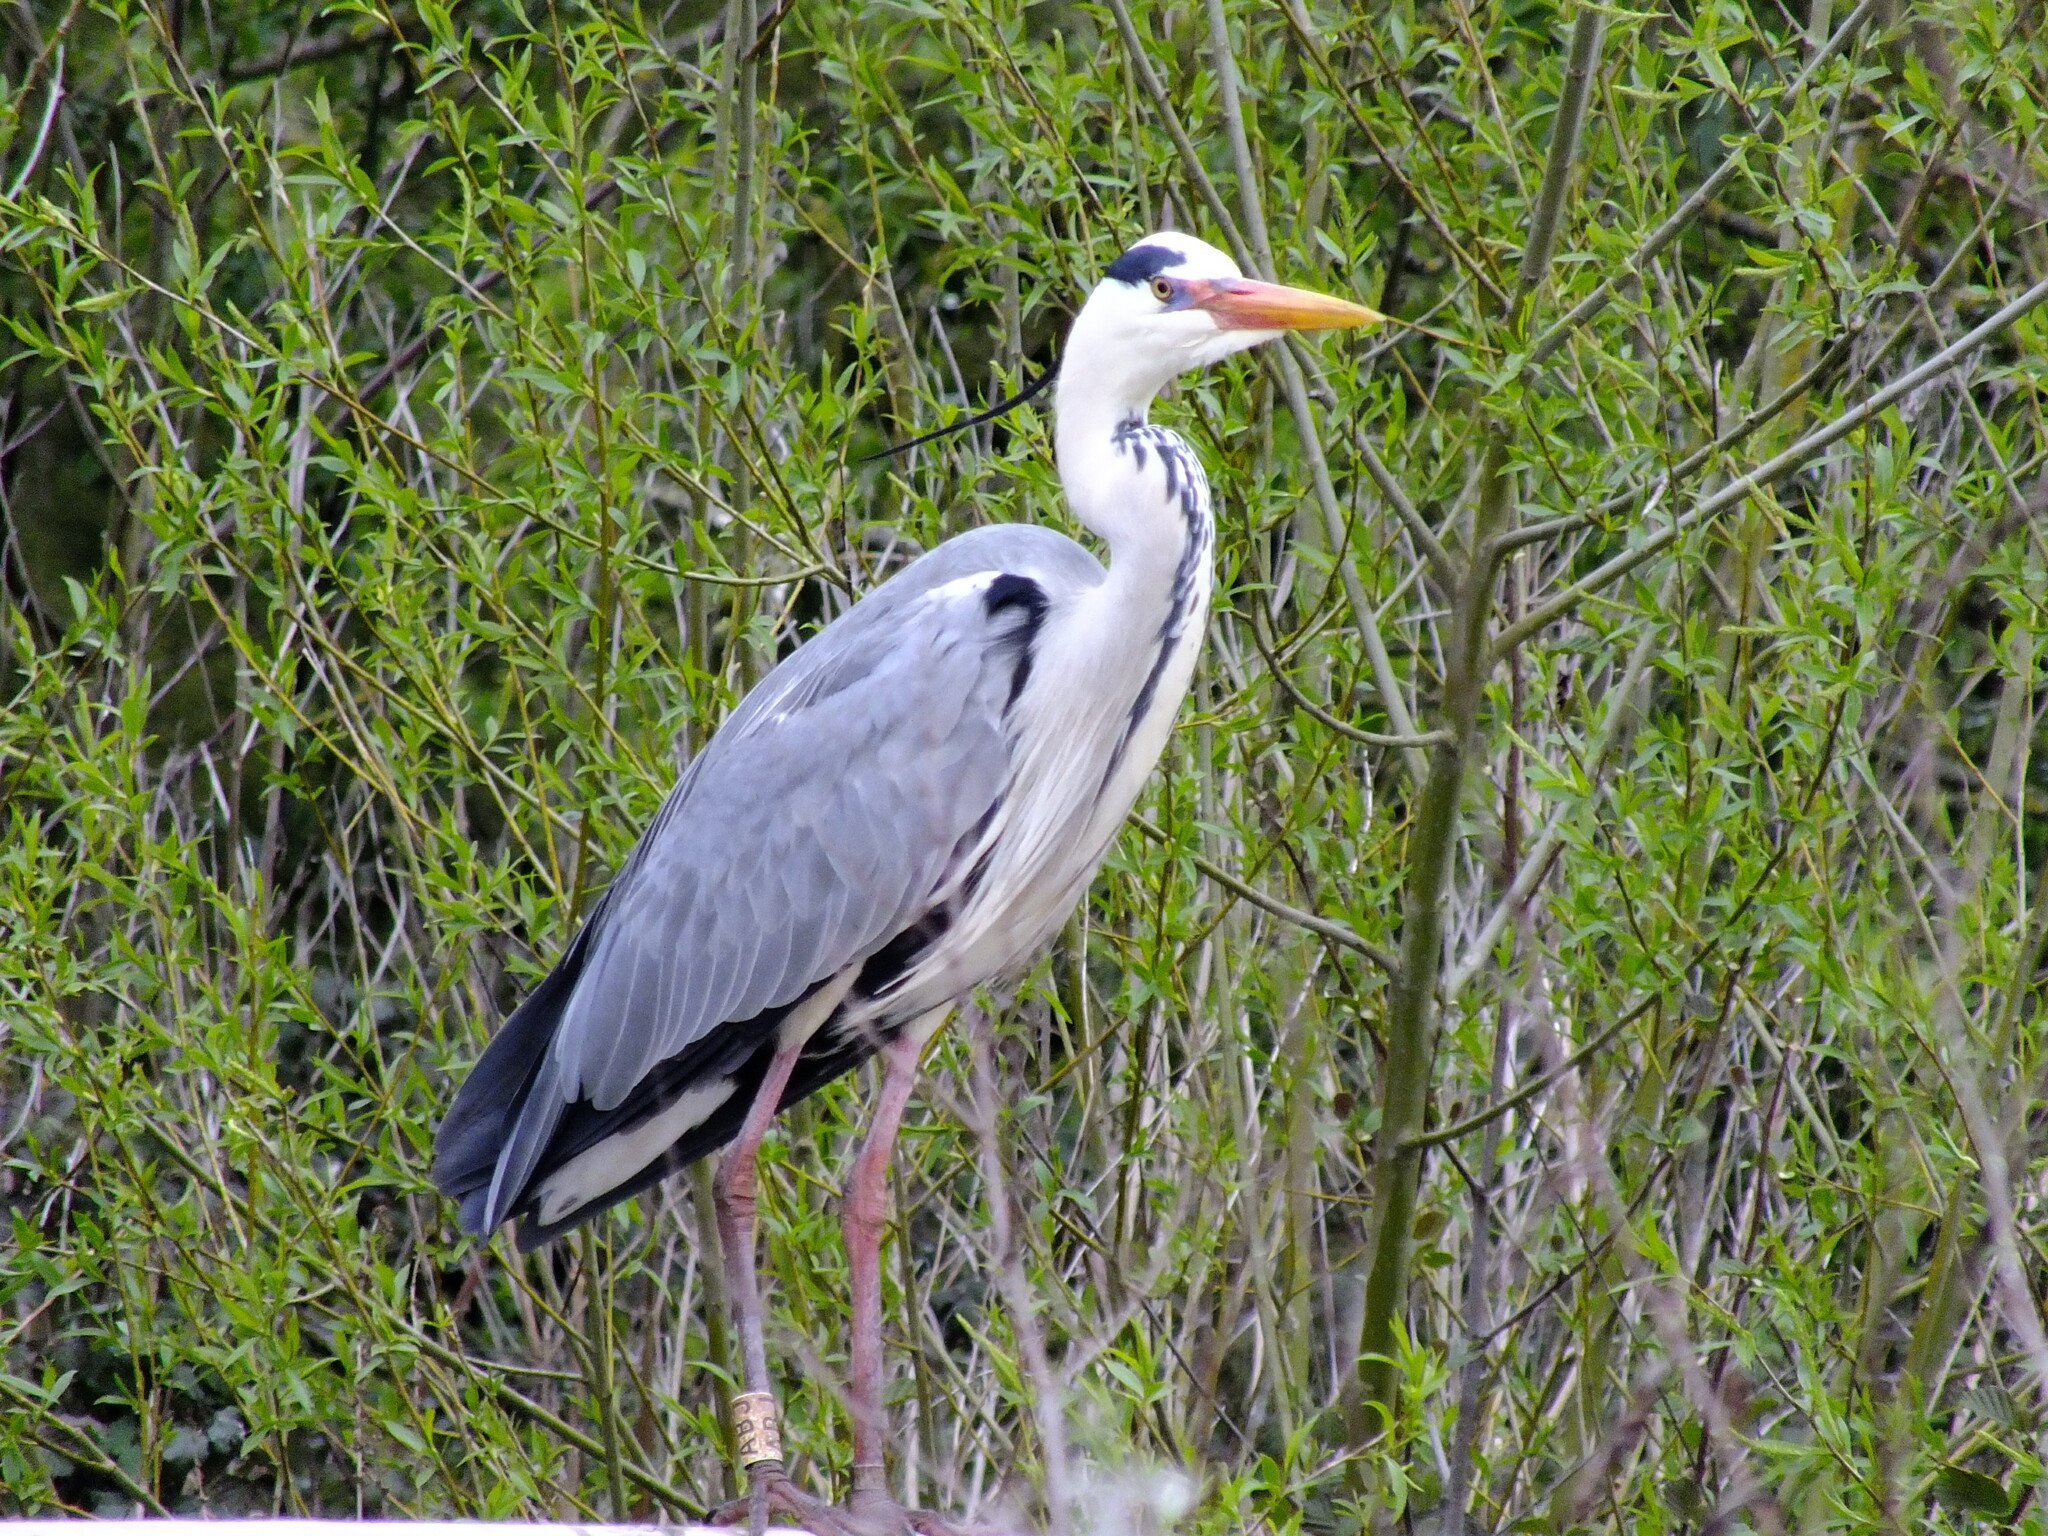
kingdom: Animalia
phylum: Chordata
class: Aves
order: Pelecaniformes
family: Ardeidae
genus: Ardea
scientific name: Ardea cinerea
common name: Grey heron
